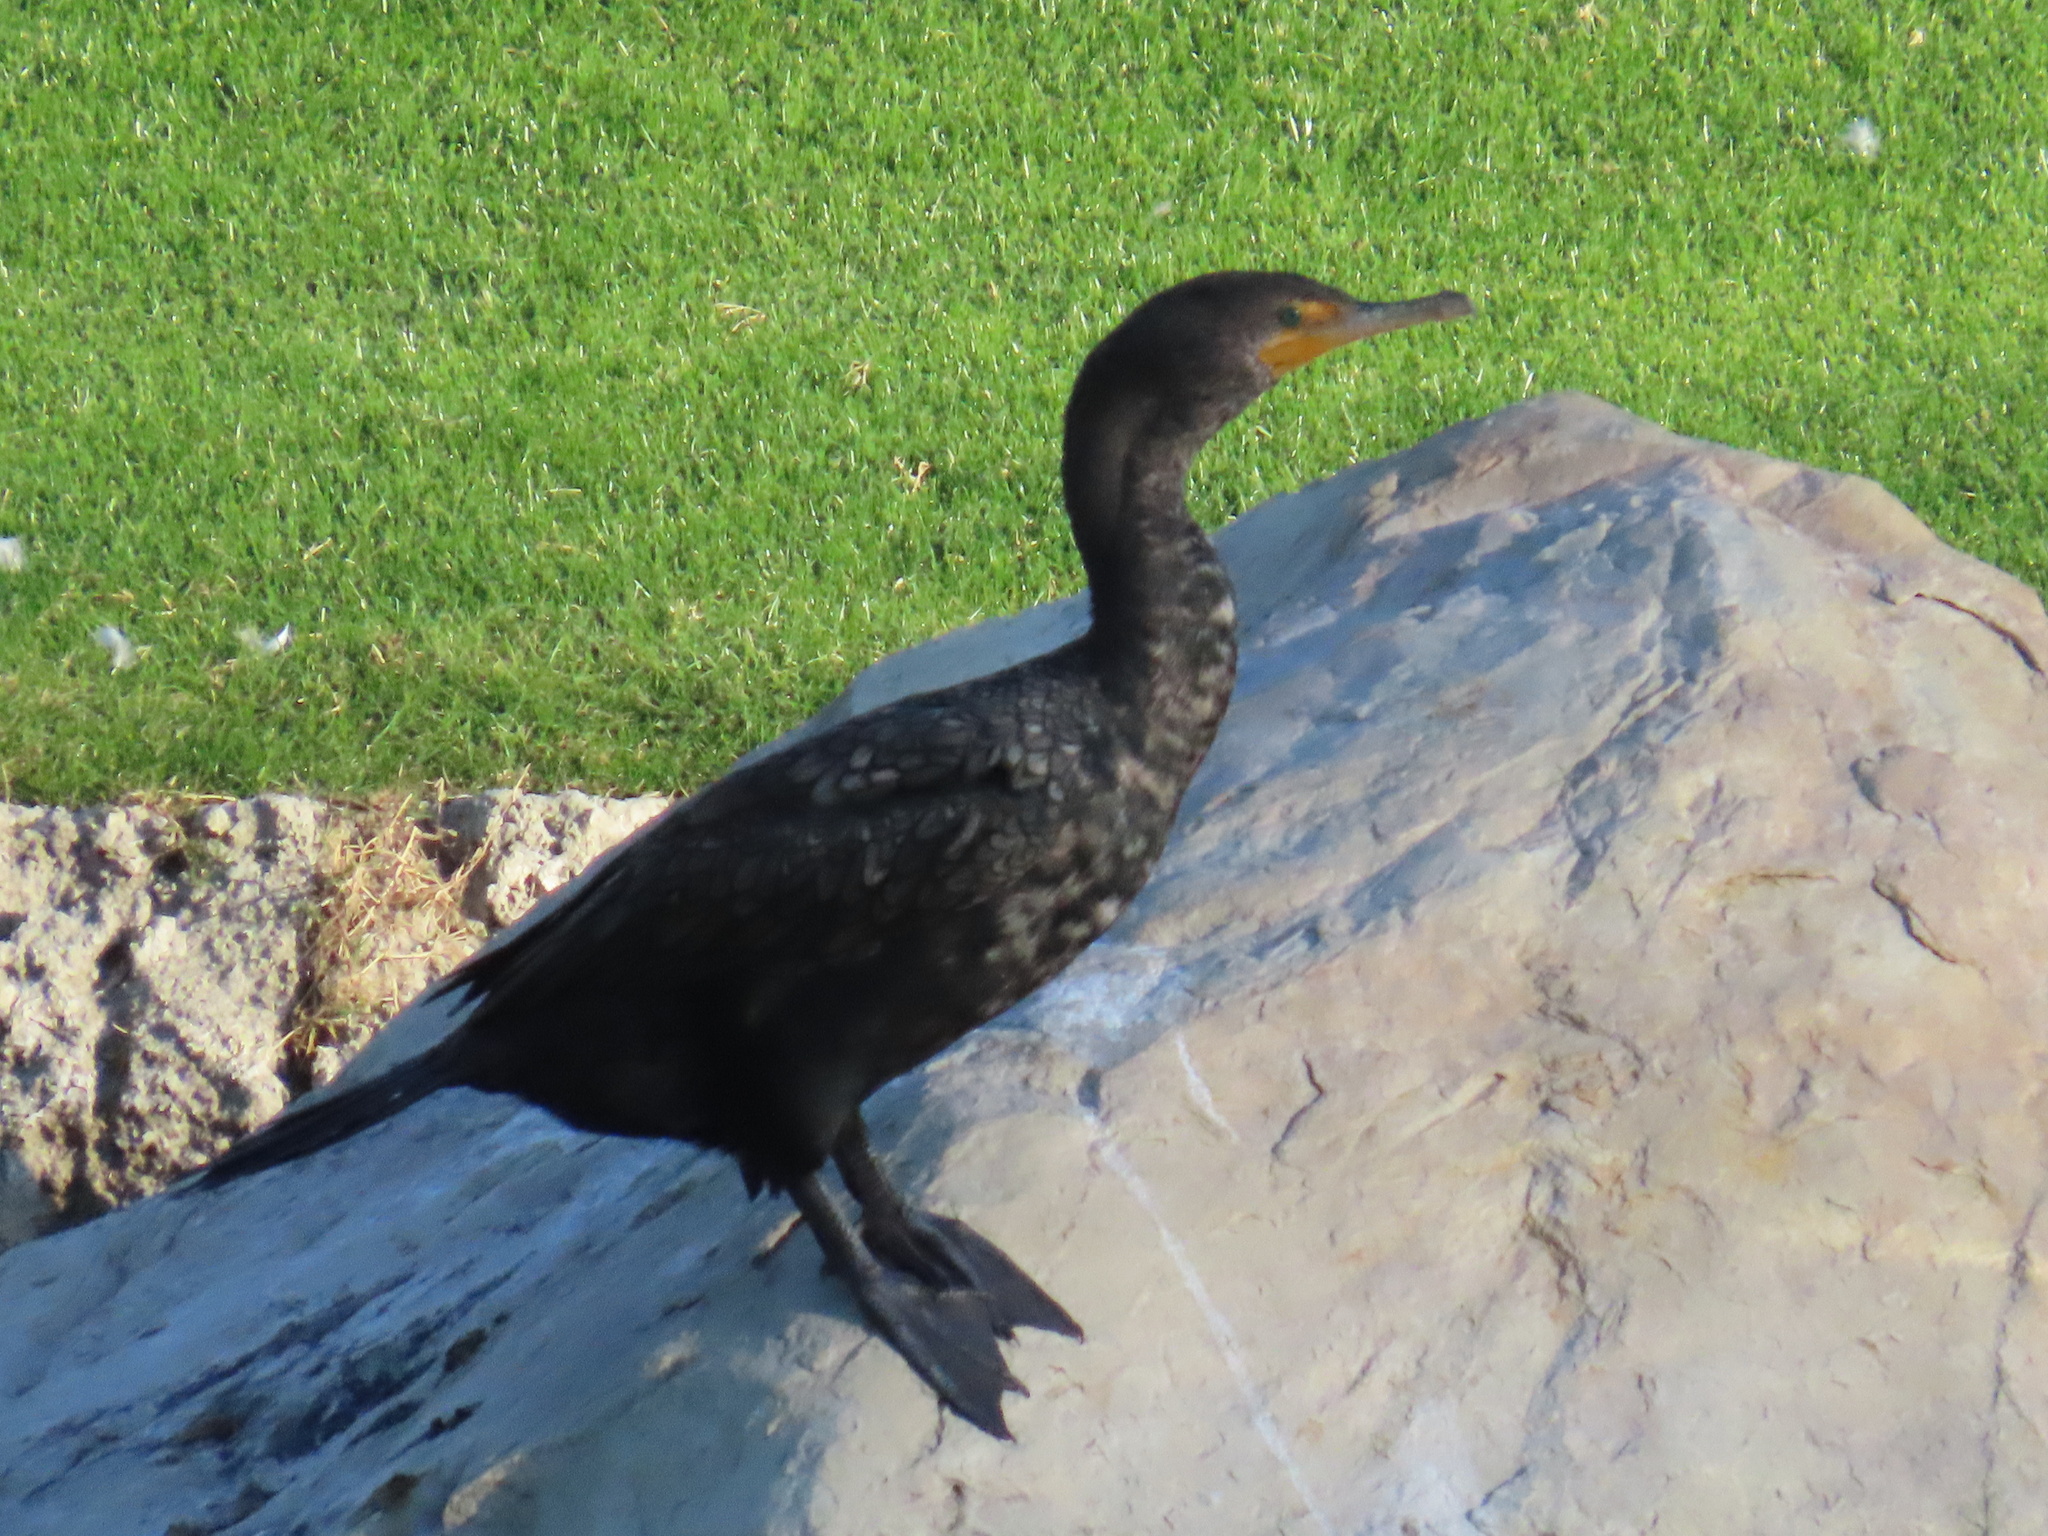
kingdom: Animalia
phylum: Chordata
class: Aves
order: Suliformes
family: Phalacrocoracidae
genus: Phalacrocorax
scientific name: Phalacrocorax auritus
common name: Double-crested cormorant
